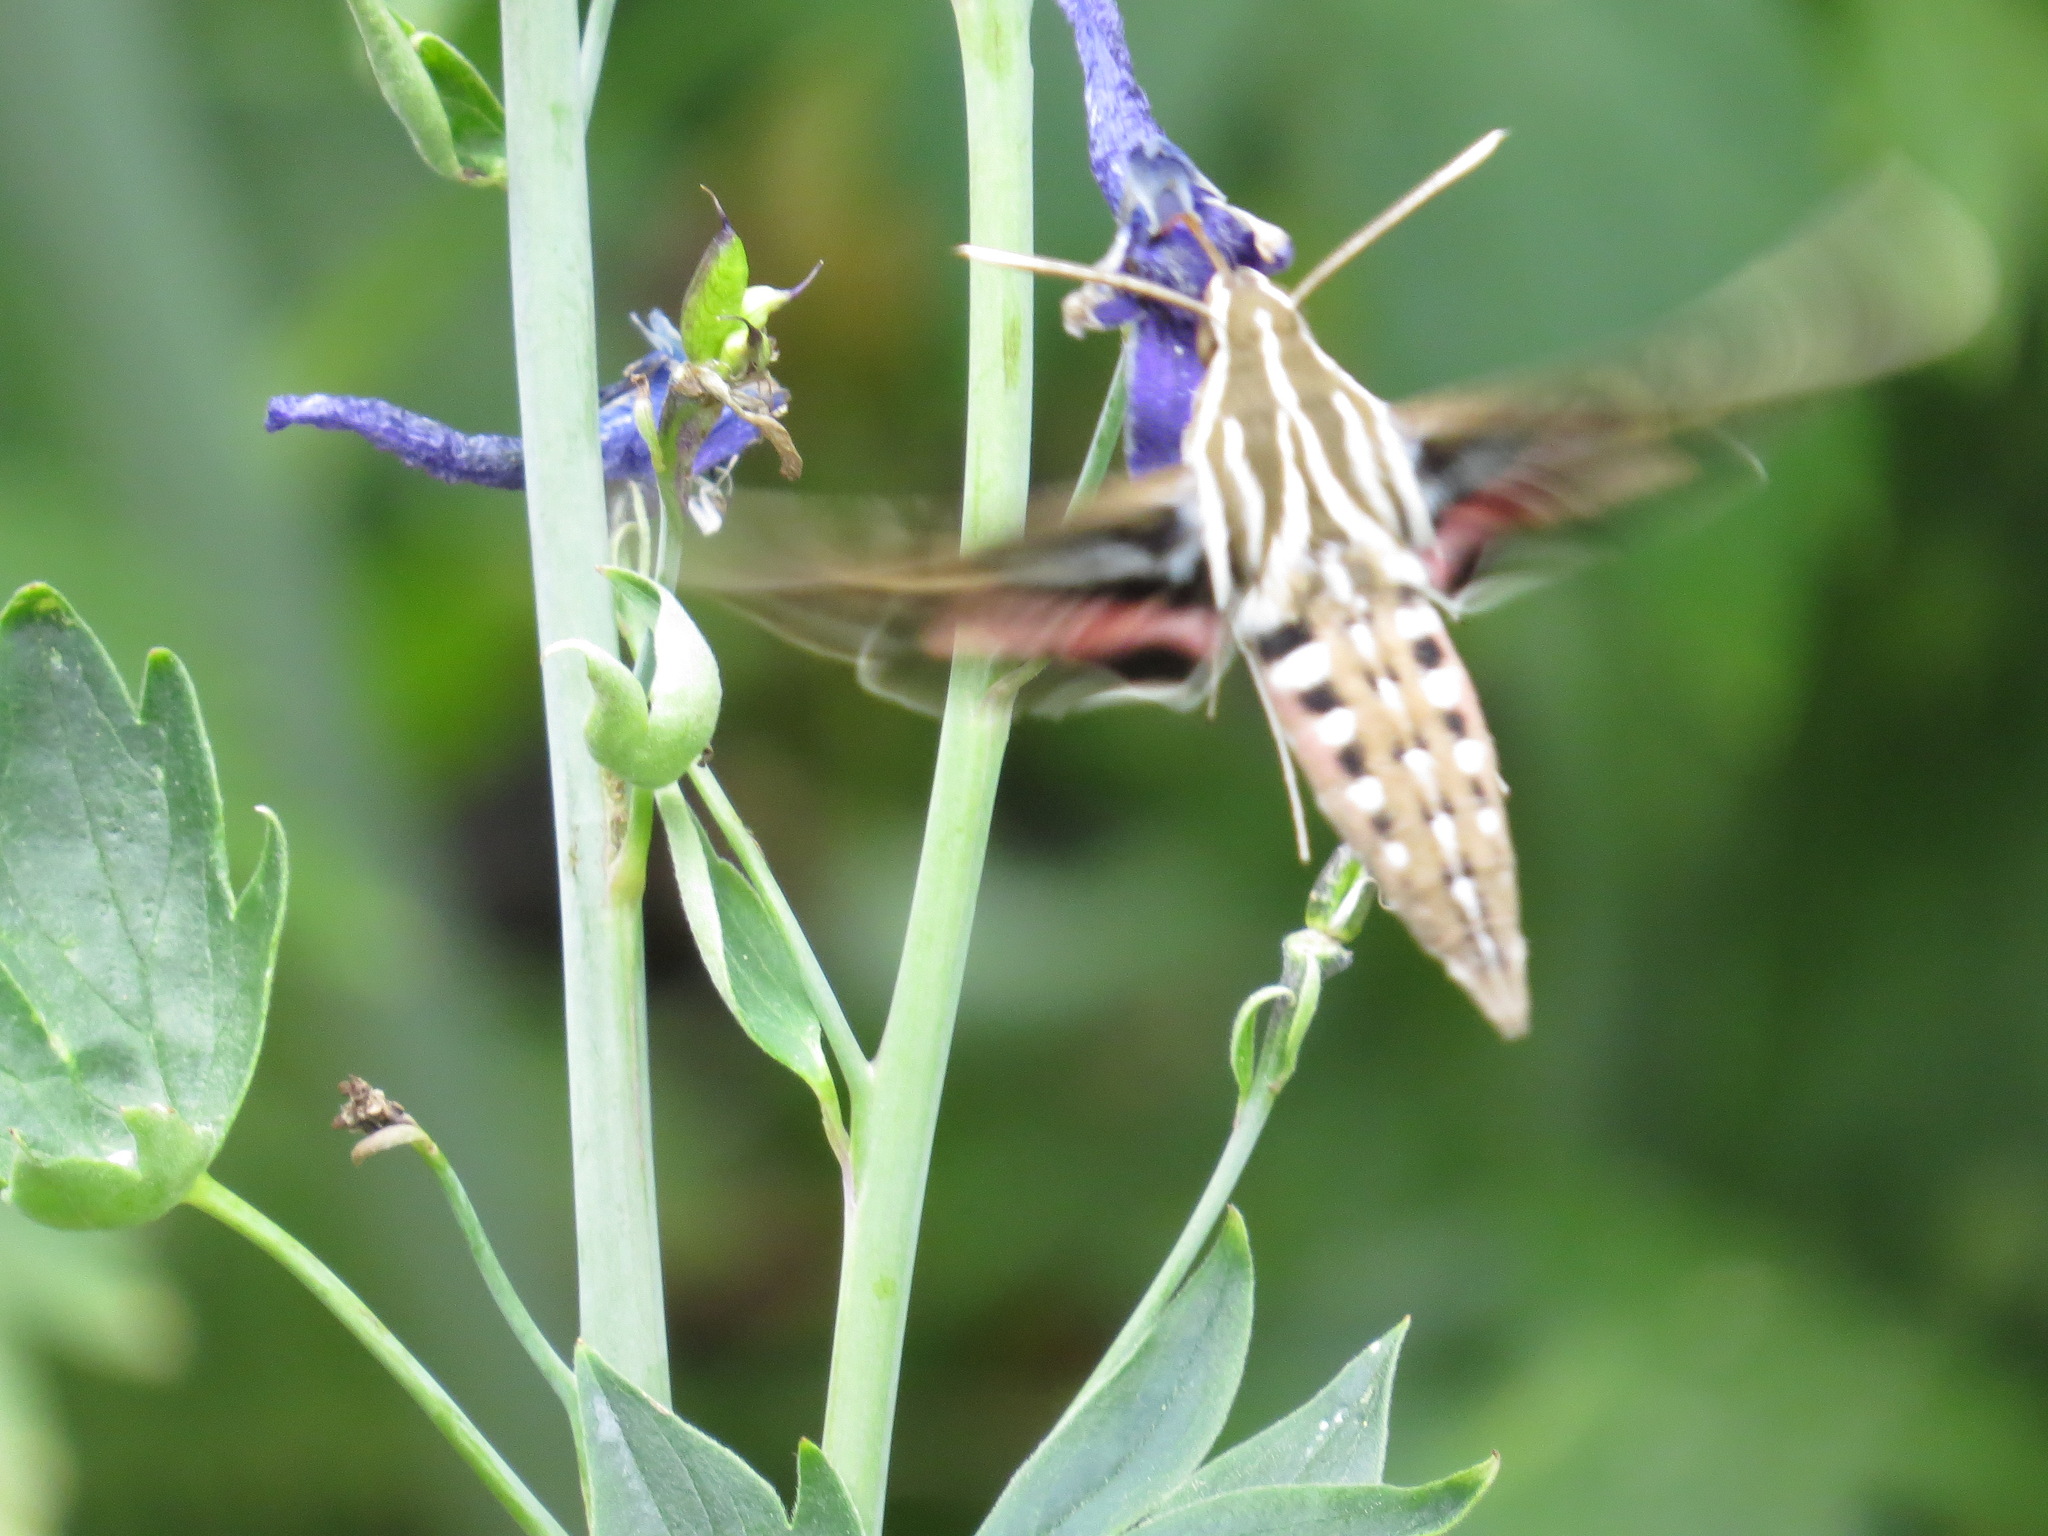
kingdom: Animalia
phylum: Arthropoda
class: Insecta
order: Lepidoptera
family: Sphingidae
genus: Hyles
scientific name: Hyles lineata
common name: White-lined sphinx
